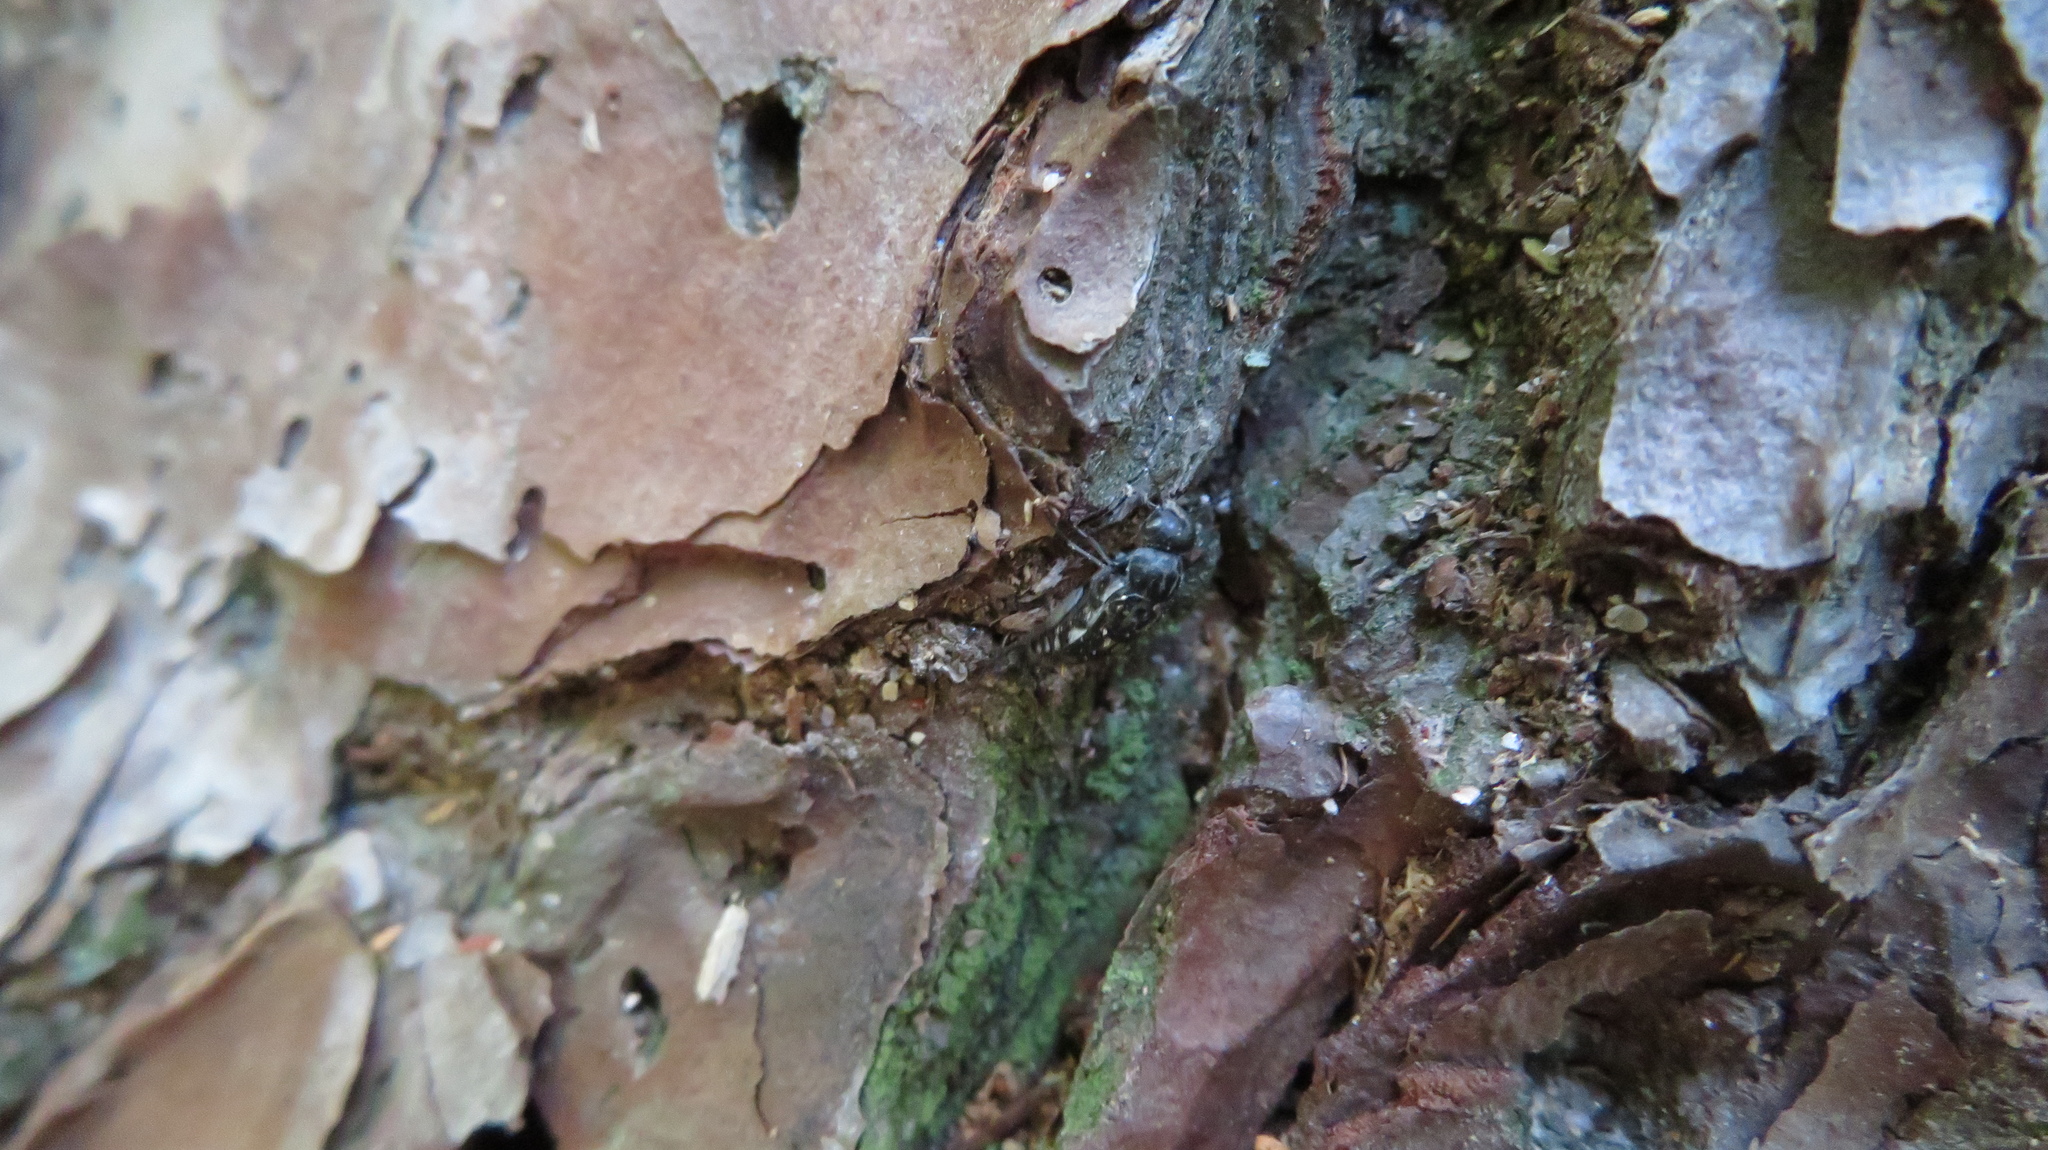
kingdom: Animalia
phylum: Arthropoda
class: Insecta
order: Coleoptera
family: Mordellidae
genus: Hoshihananomia
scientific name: Hoshihananomia octopunctata
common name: Eight-spotted tumbling flower beetle
